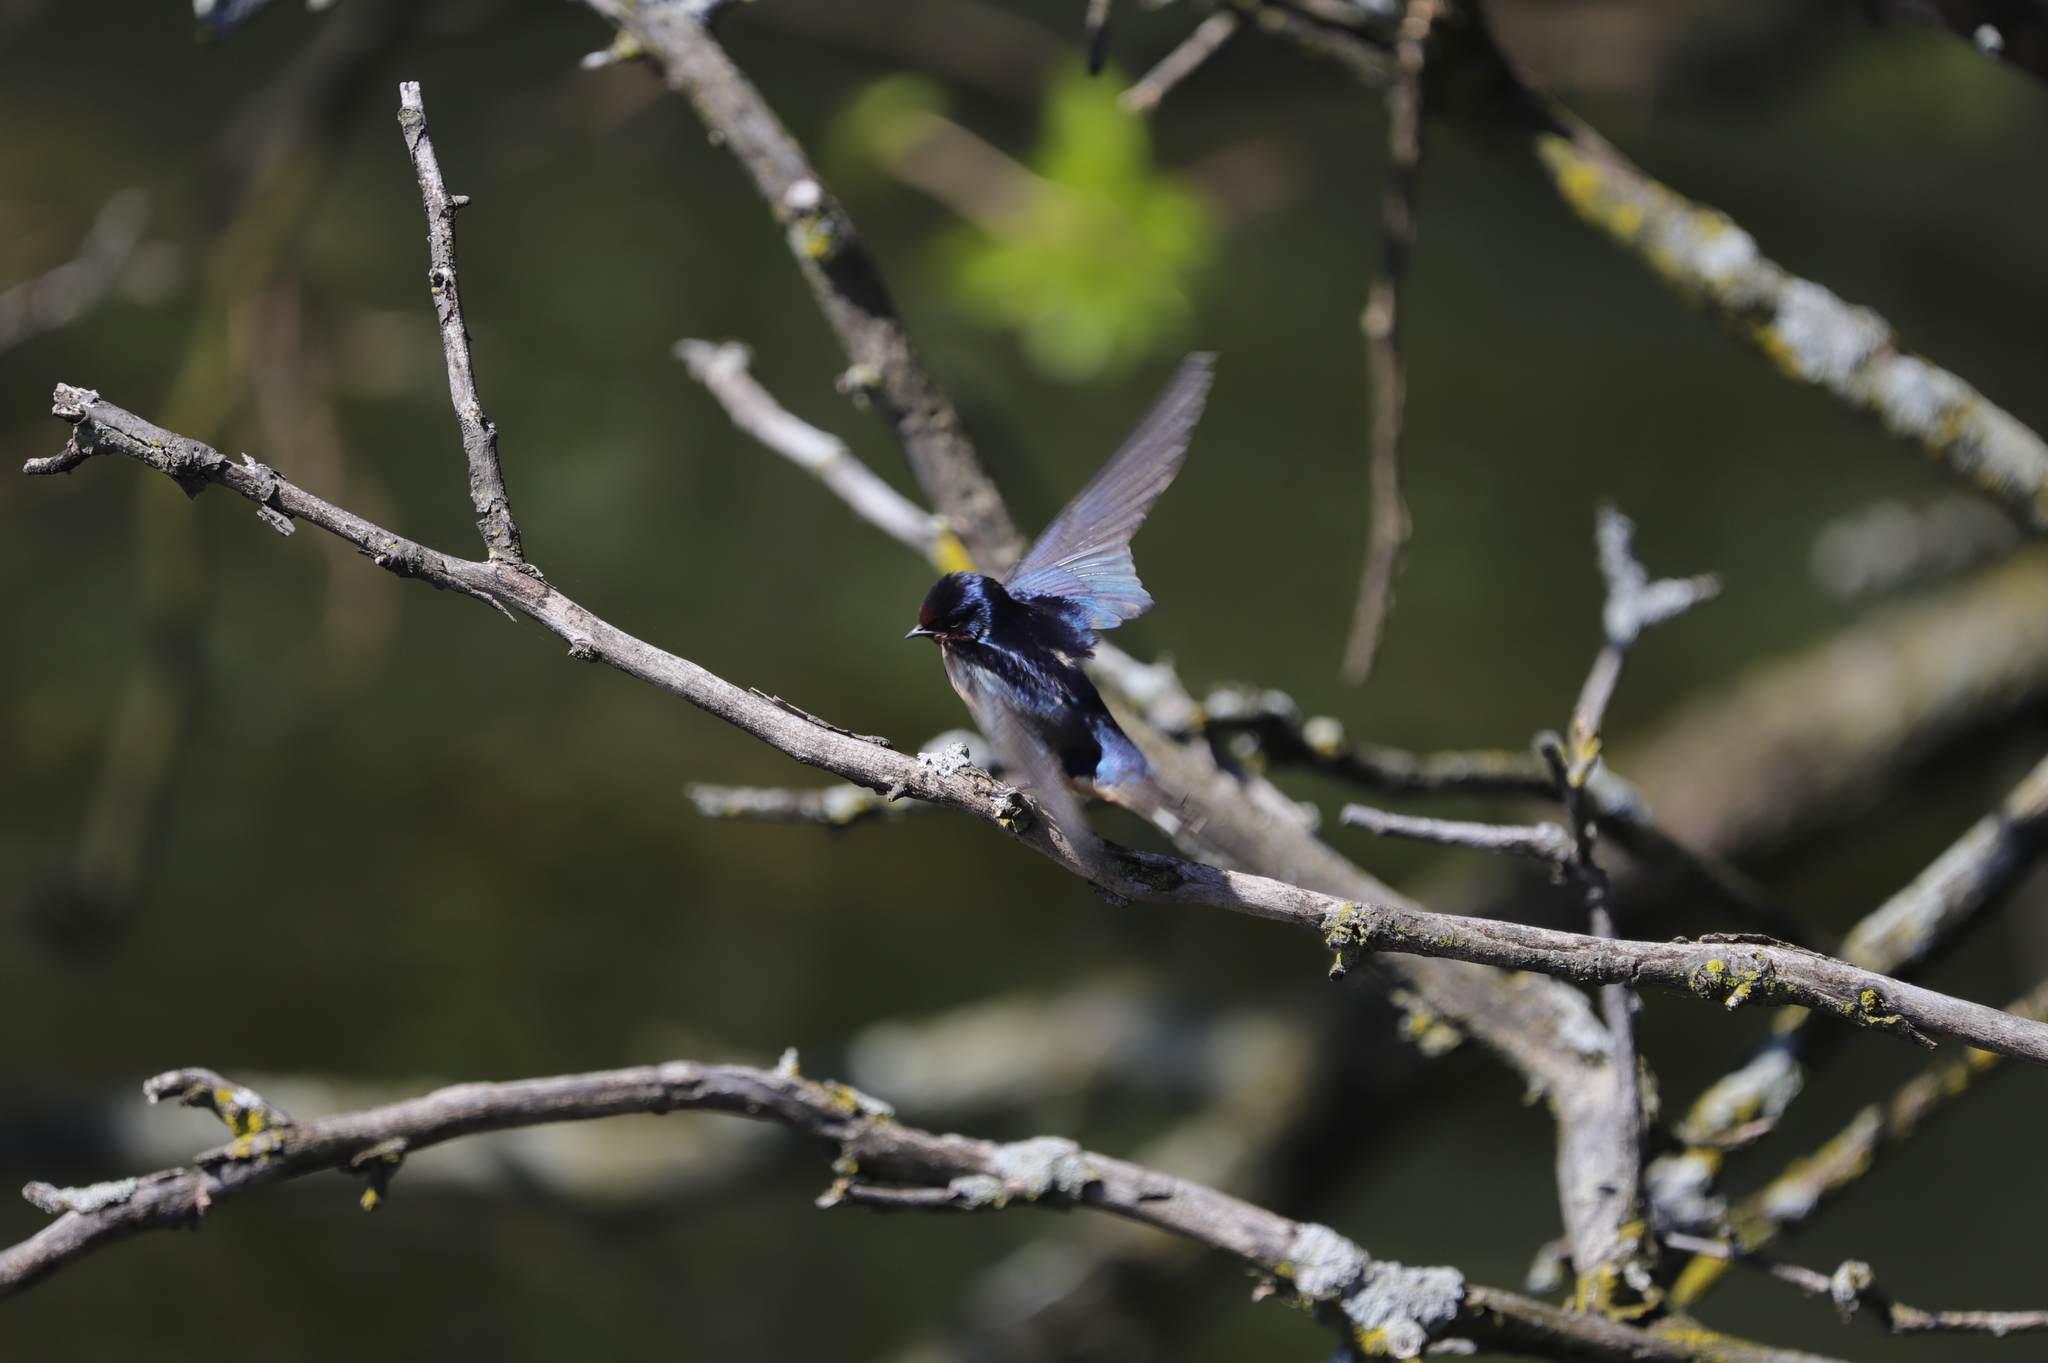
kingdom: Animalia
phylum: Chordata
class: Aves
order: Passeriformes
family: Hirundinidae
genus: Hirundo
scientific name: Hirundo rustica
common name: Barn swallow
